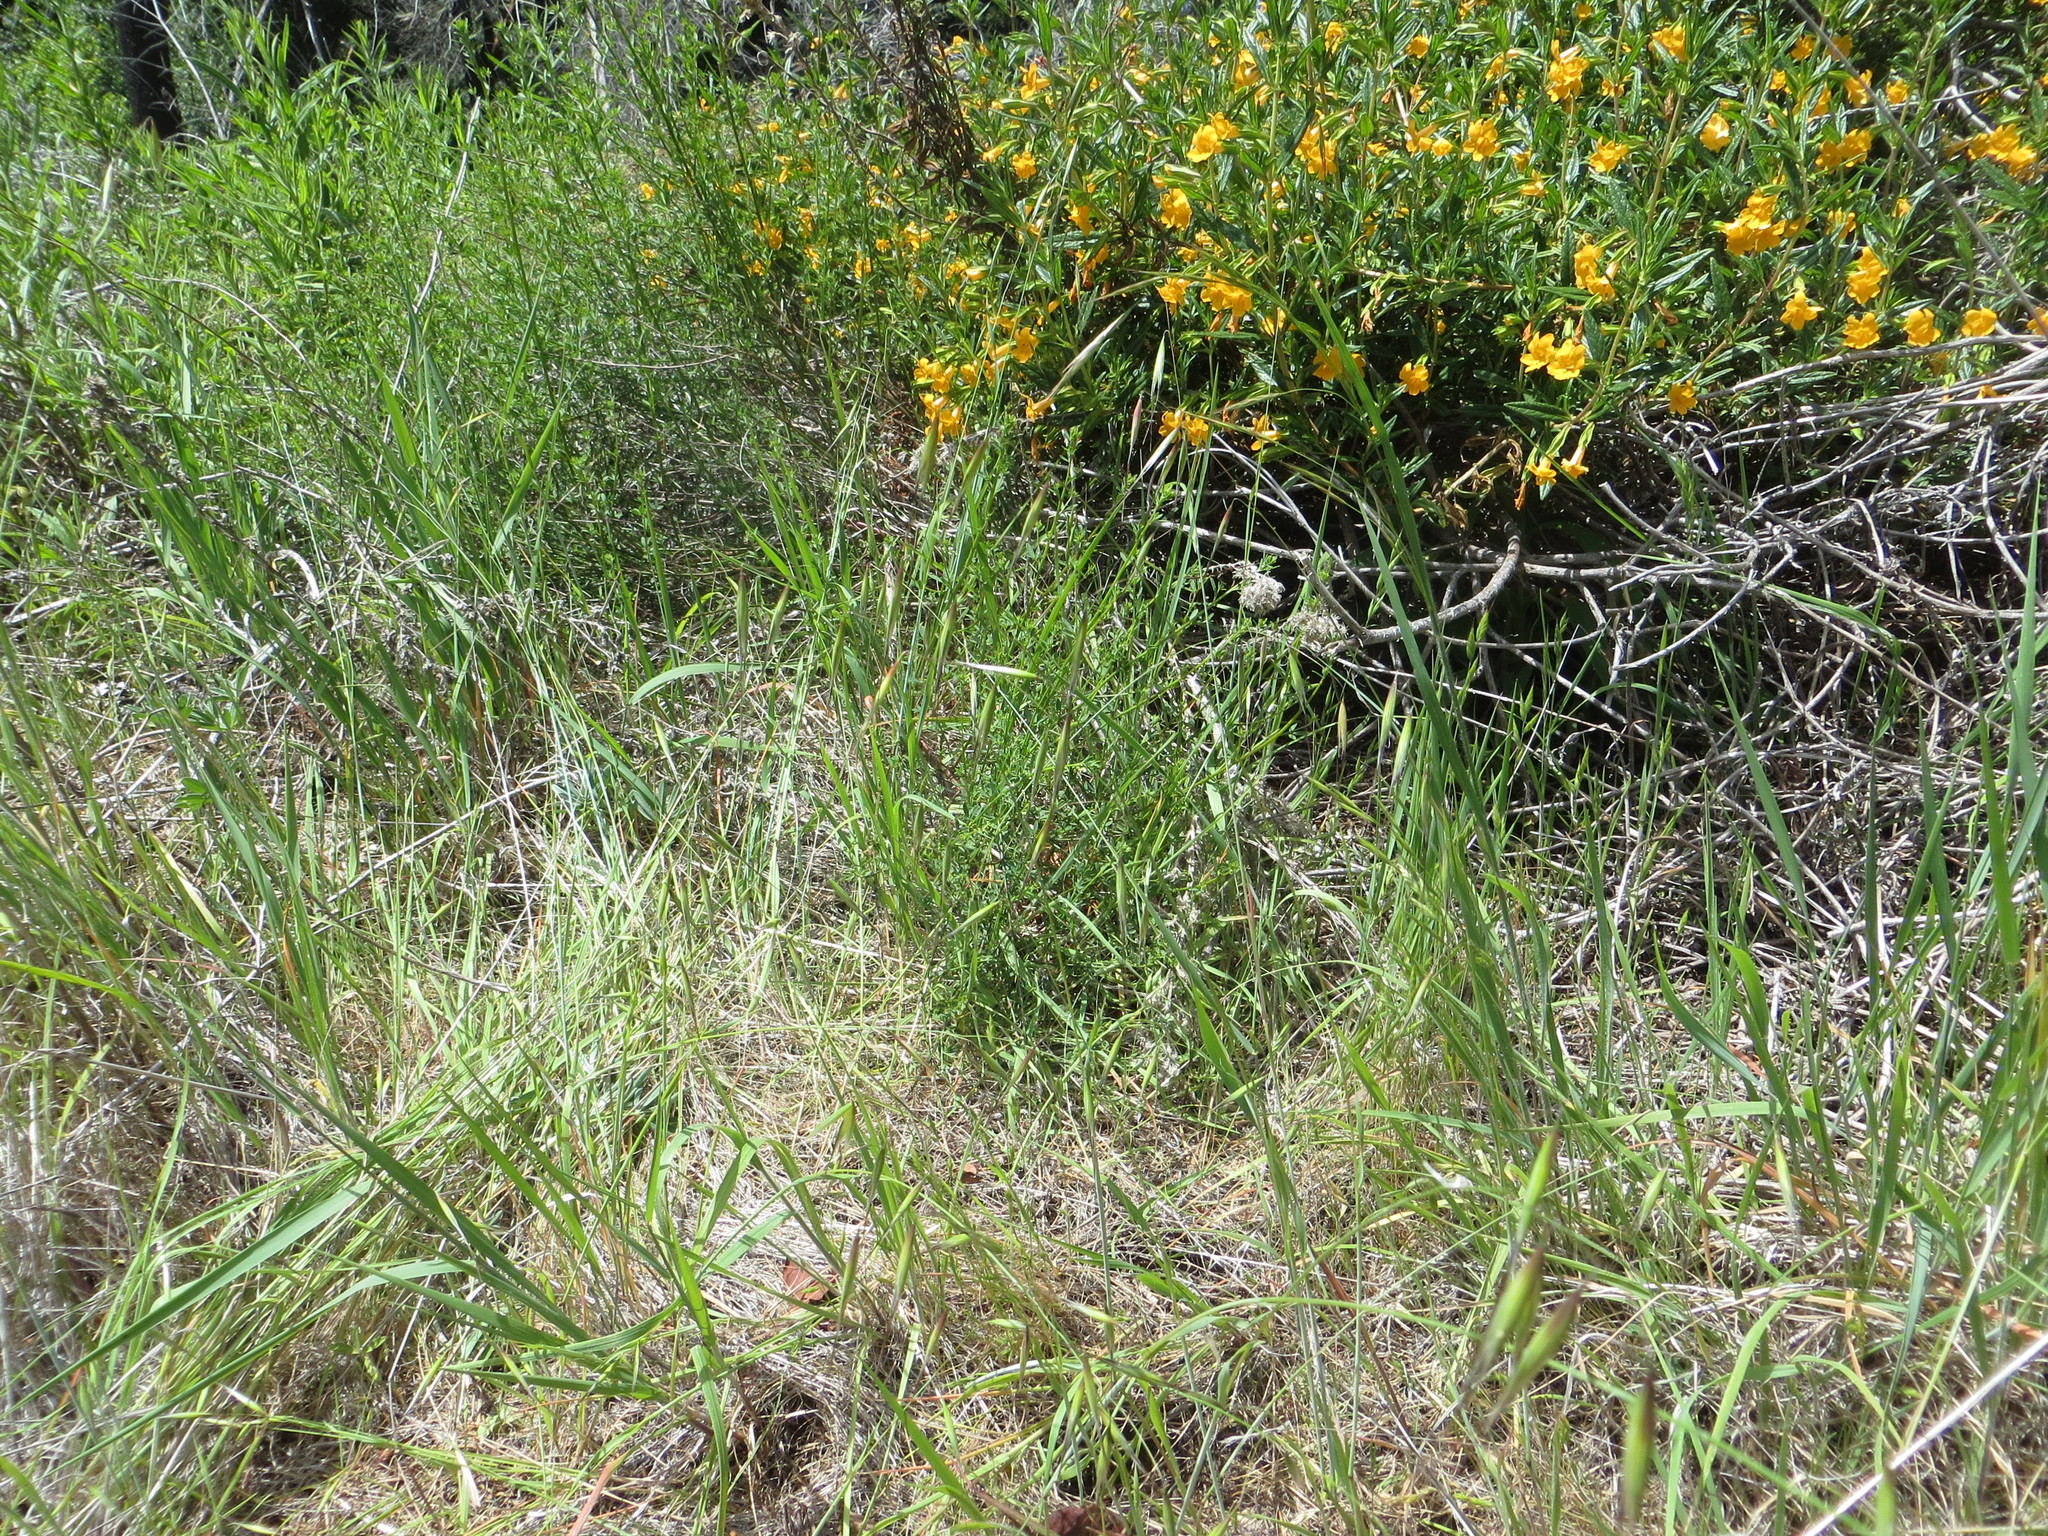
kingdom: Plantae
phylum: Tracheophyta
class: Magnoliopsida
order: Lamiales
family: Phrymaceae
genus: Diplacus
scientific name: Diplacus aurantiacus
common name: Bush monkey-flower
